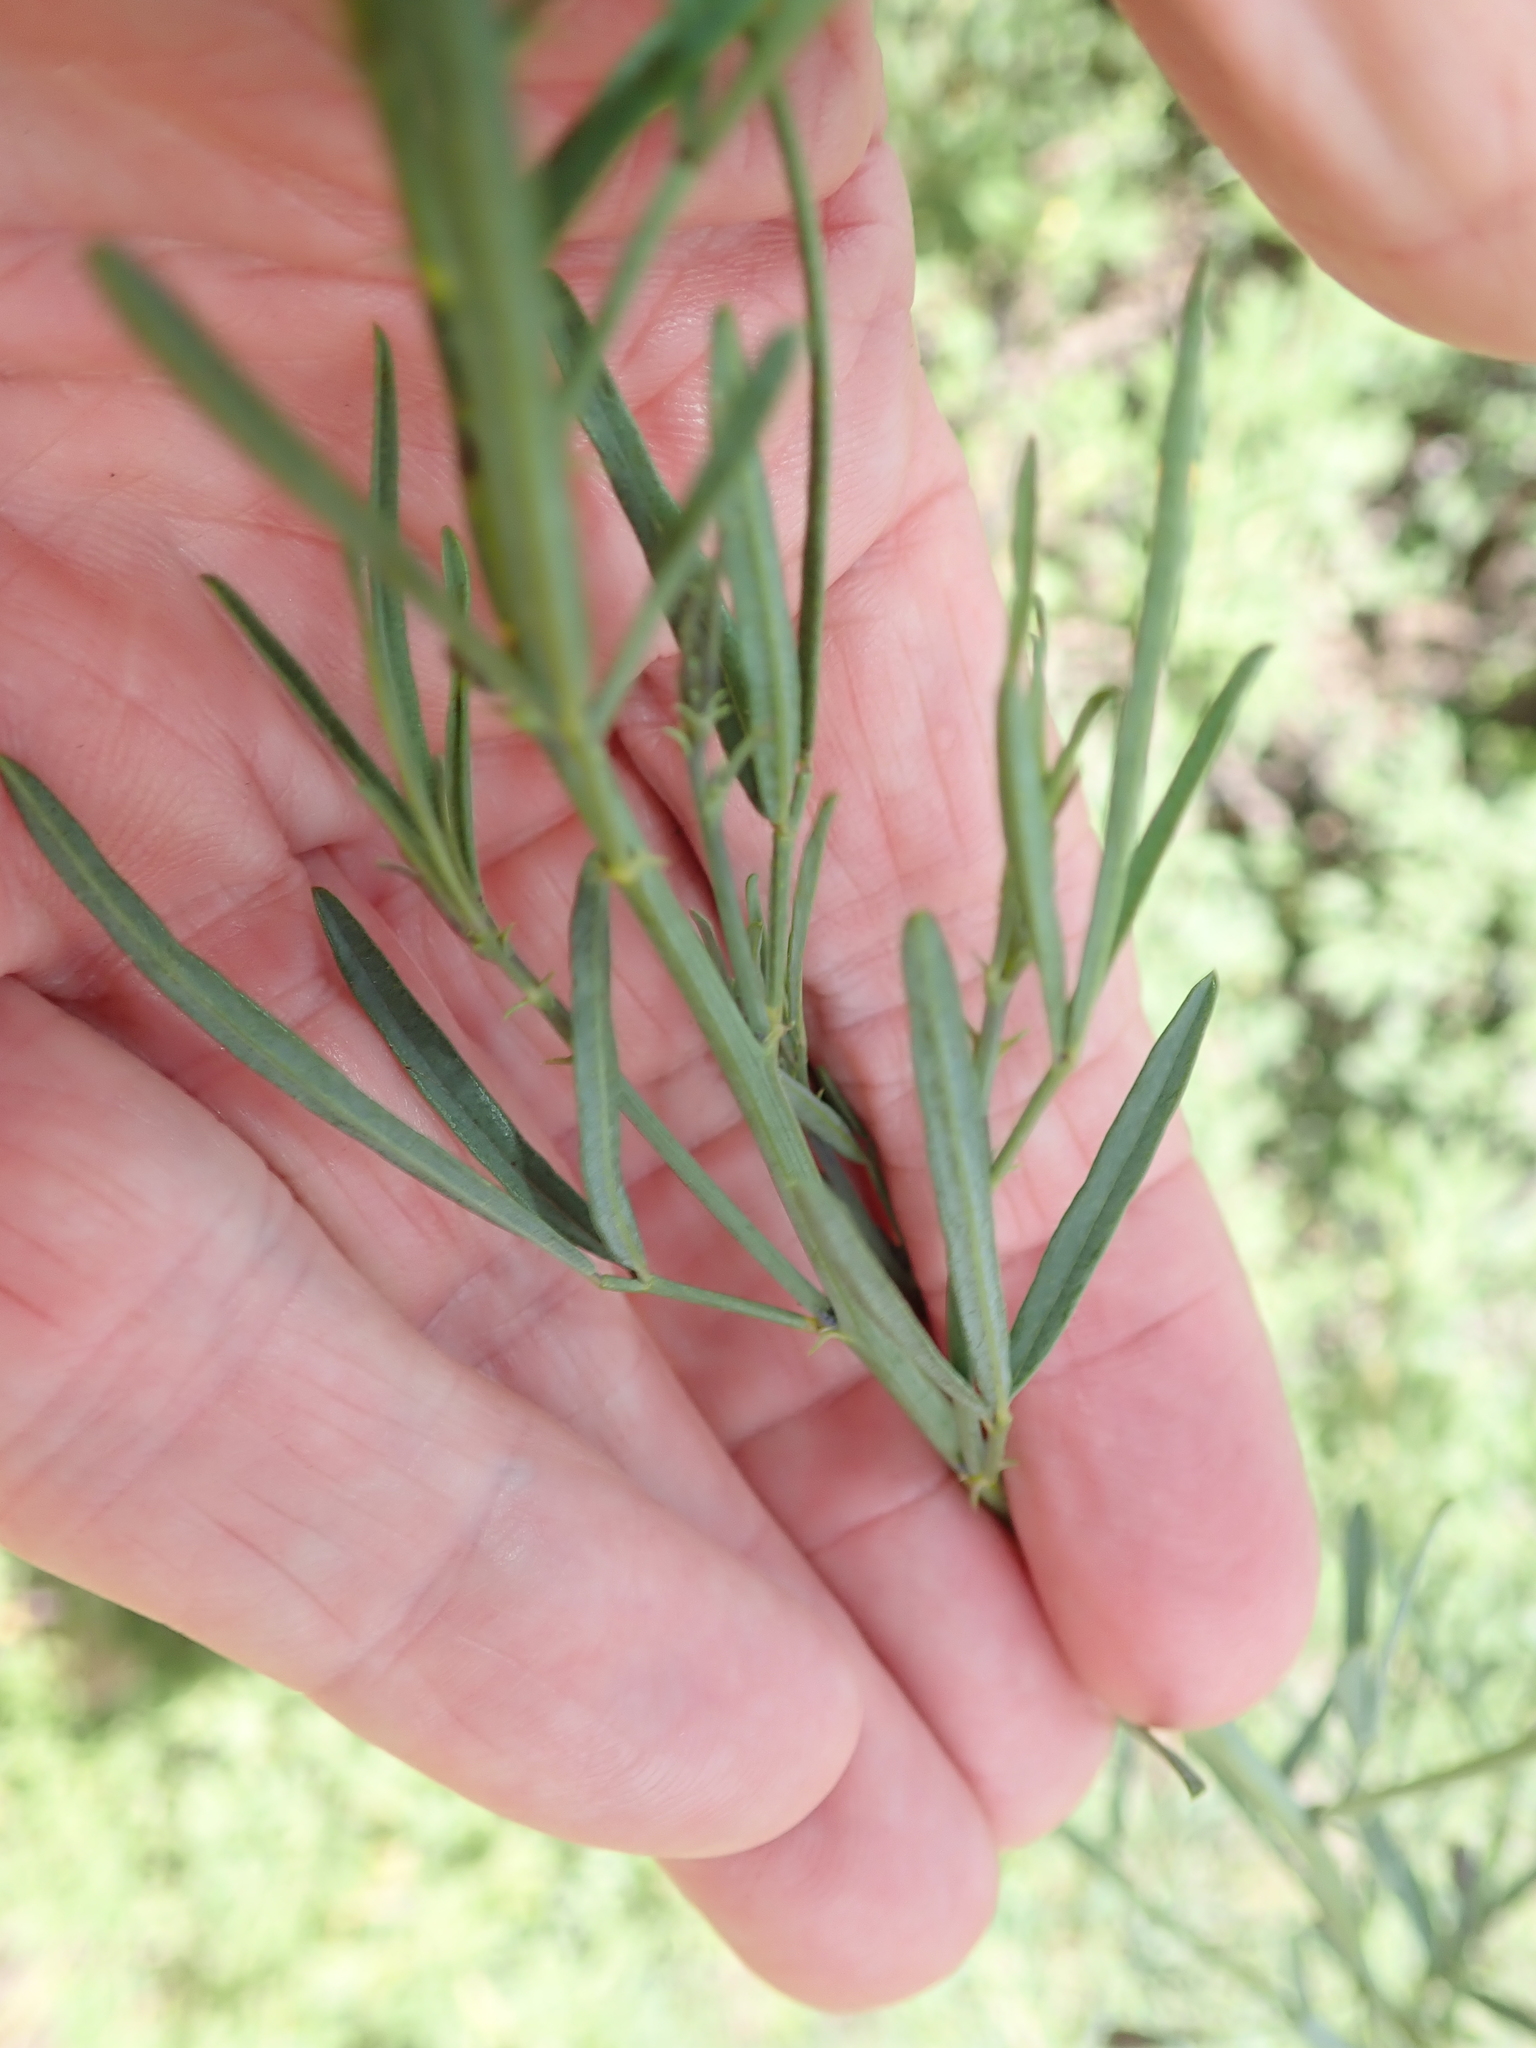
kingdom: Plantae
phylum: Tracheophyta
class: Magnoliopsida
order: Fabales
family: Fabaceae
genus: Psoralea
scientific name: Psoralea oligophylla
